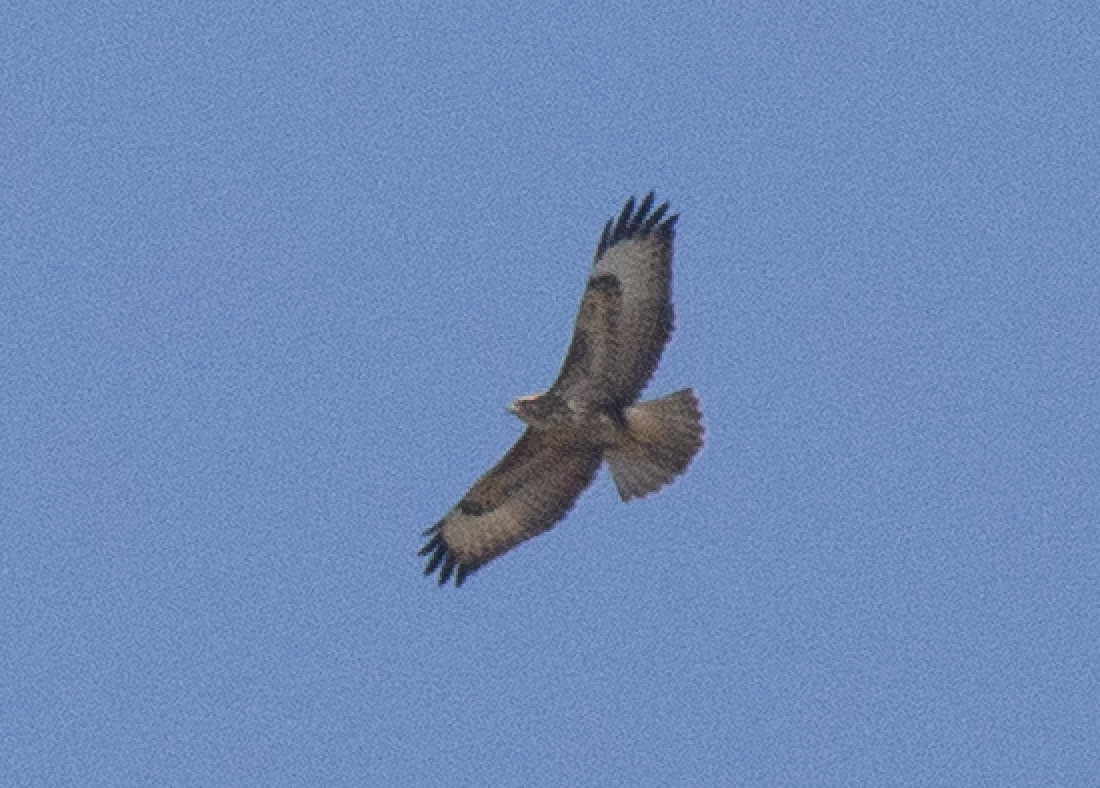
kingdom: Animalia
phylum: Chordata
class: Aves
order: Accipitriformes
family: Accipitridae
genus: Buteo
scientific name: Buteo buteo
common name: Common buzzard
